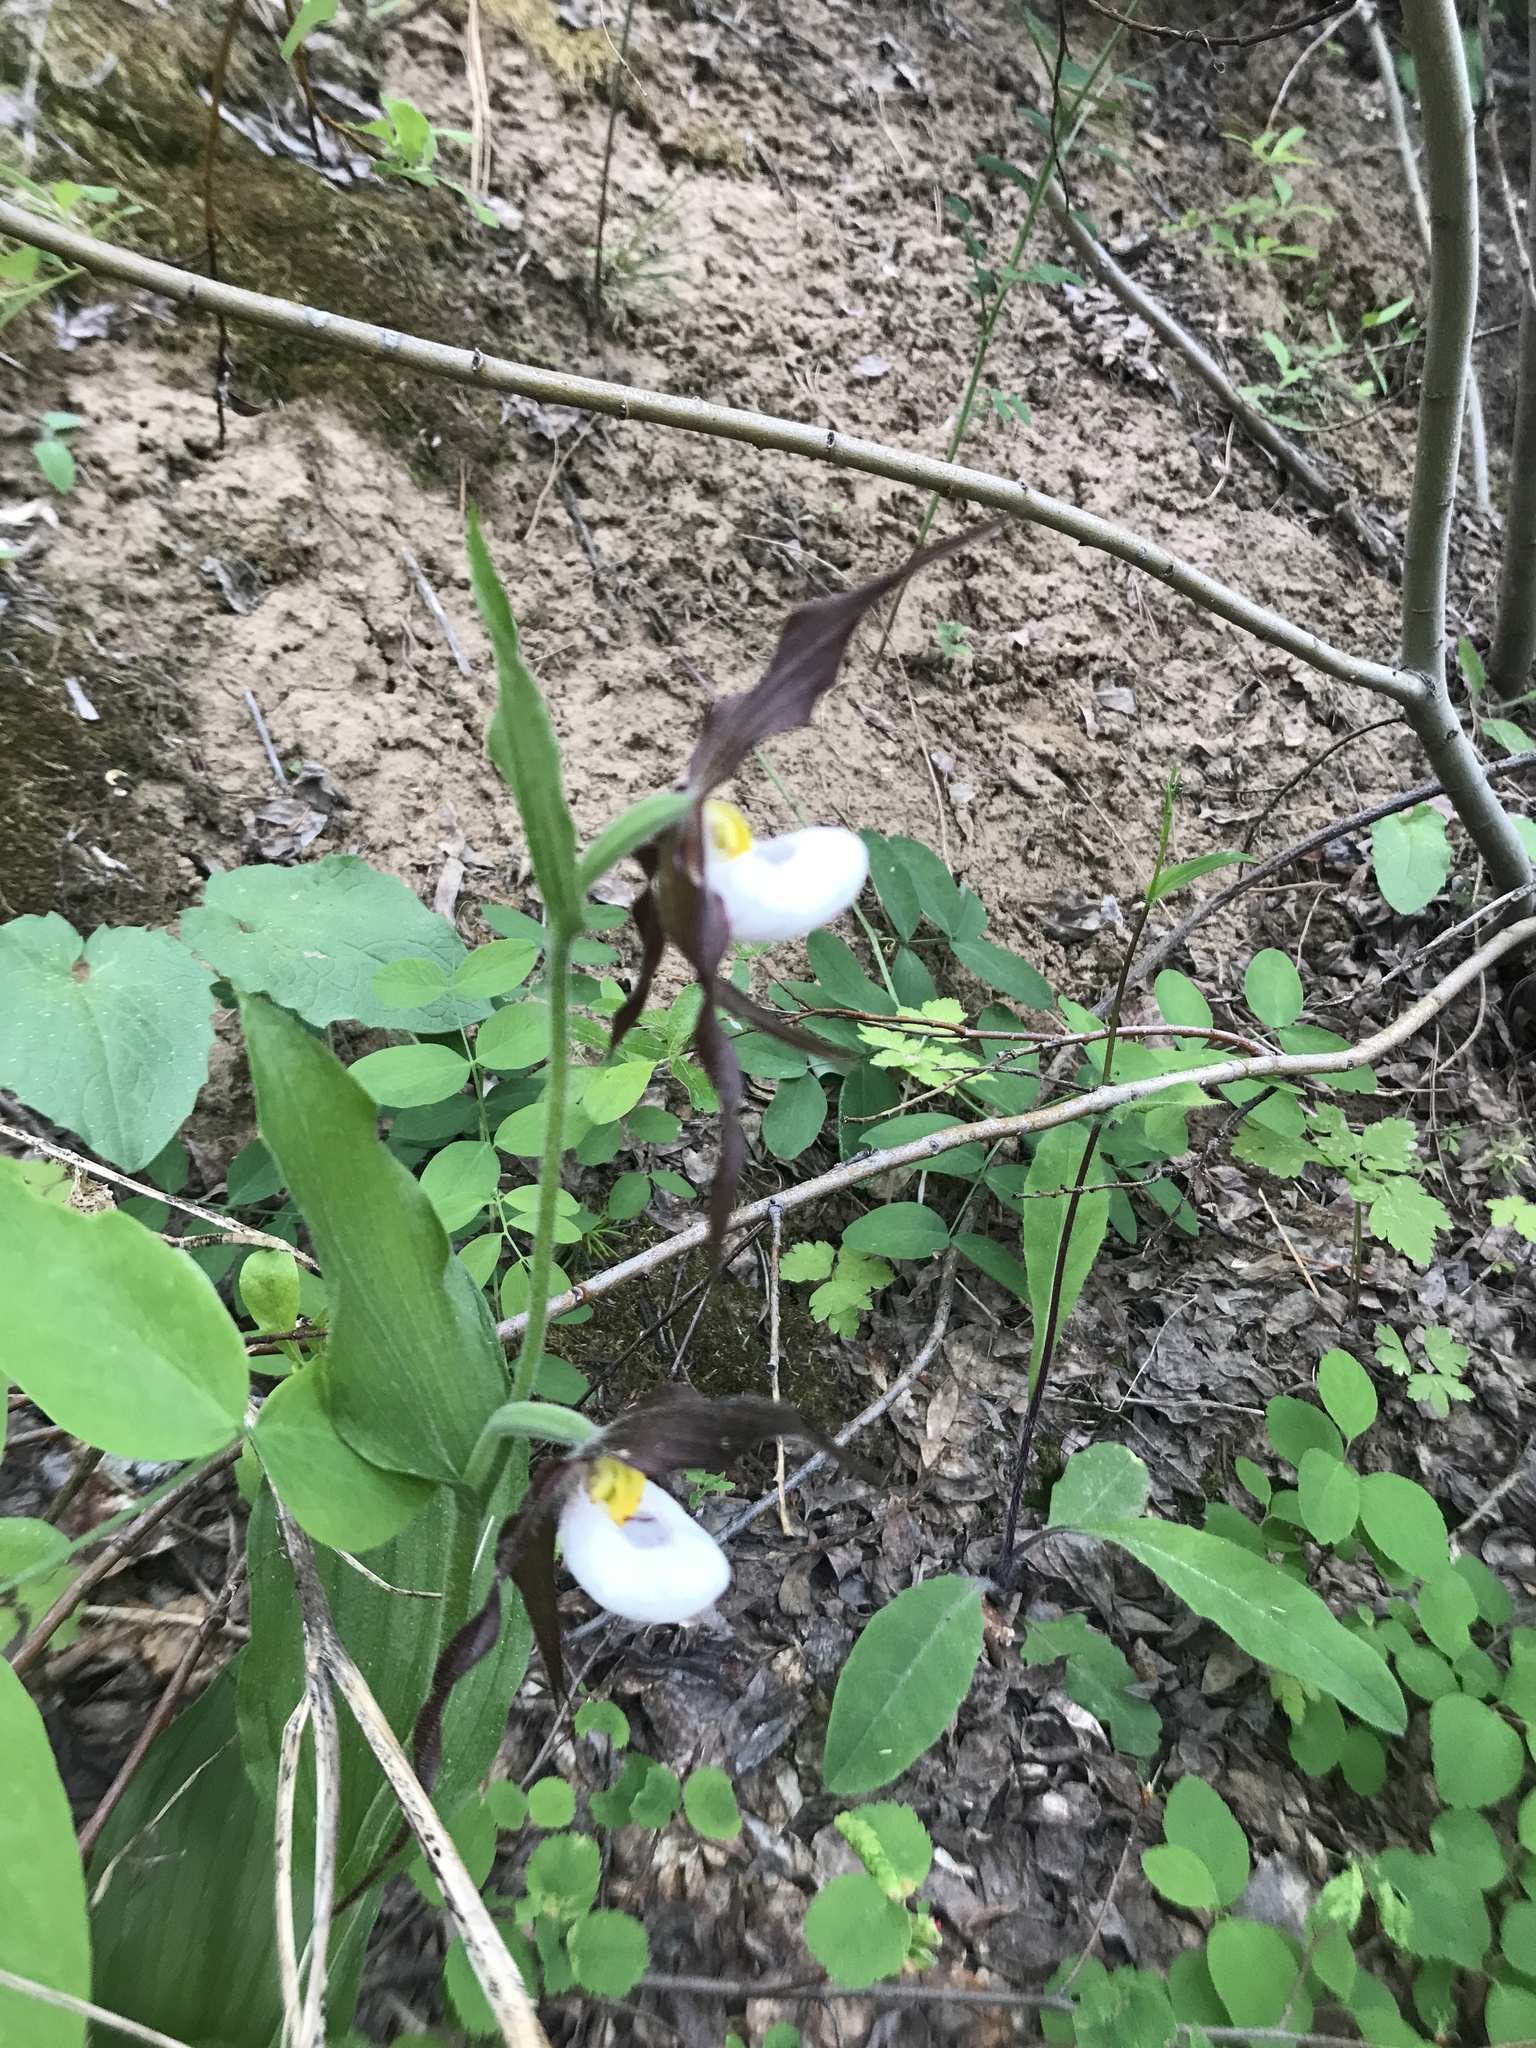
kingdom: Plantae
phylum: Tracheophyta
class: Liliopsida
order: Asparagales
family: Orchidaceae
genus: Cypripedium
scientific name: Cypripedium montanum
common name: Mountain lady's-slipper
